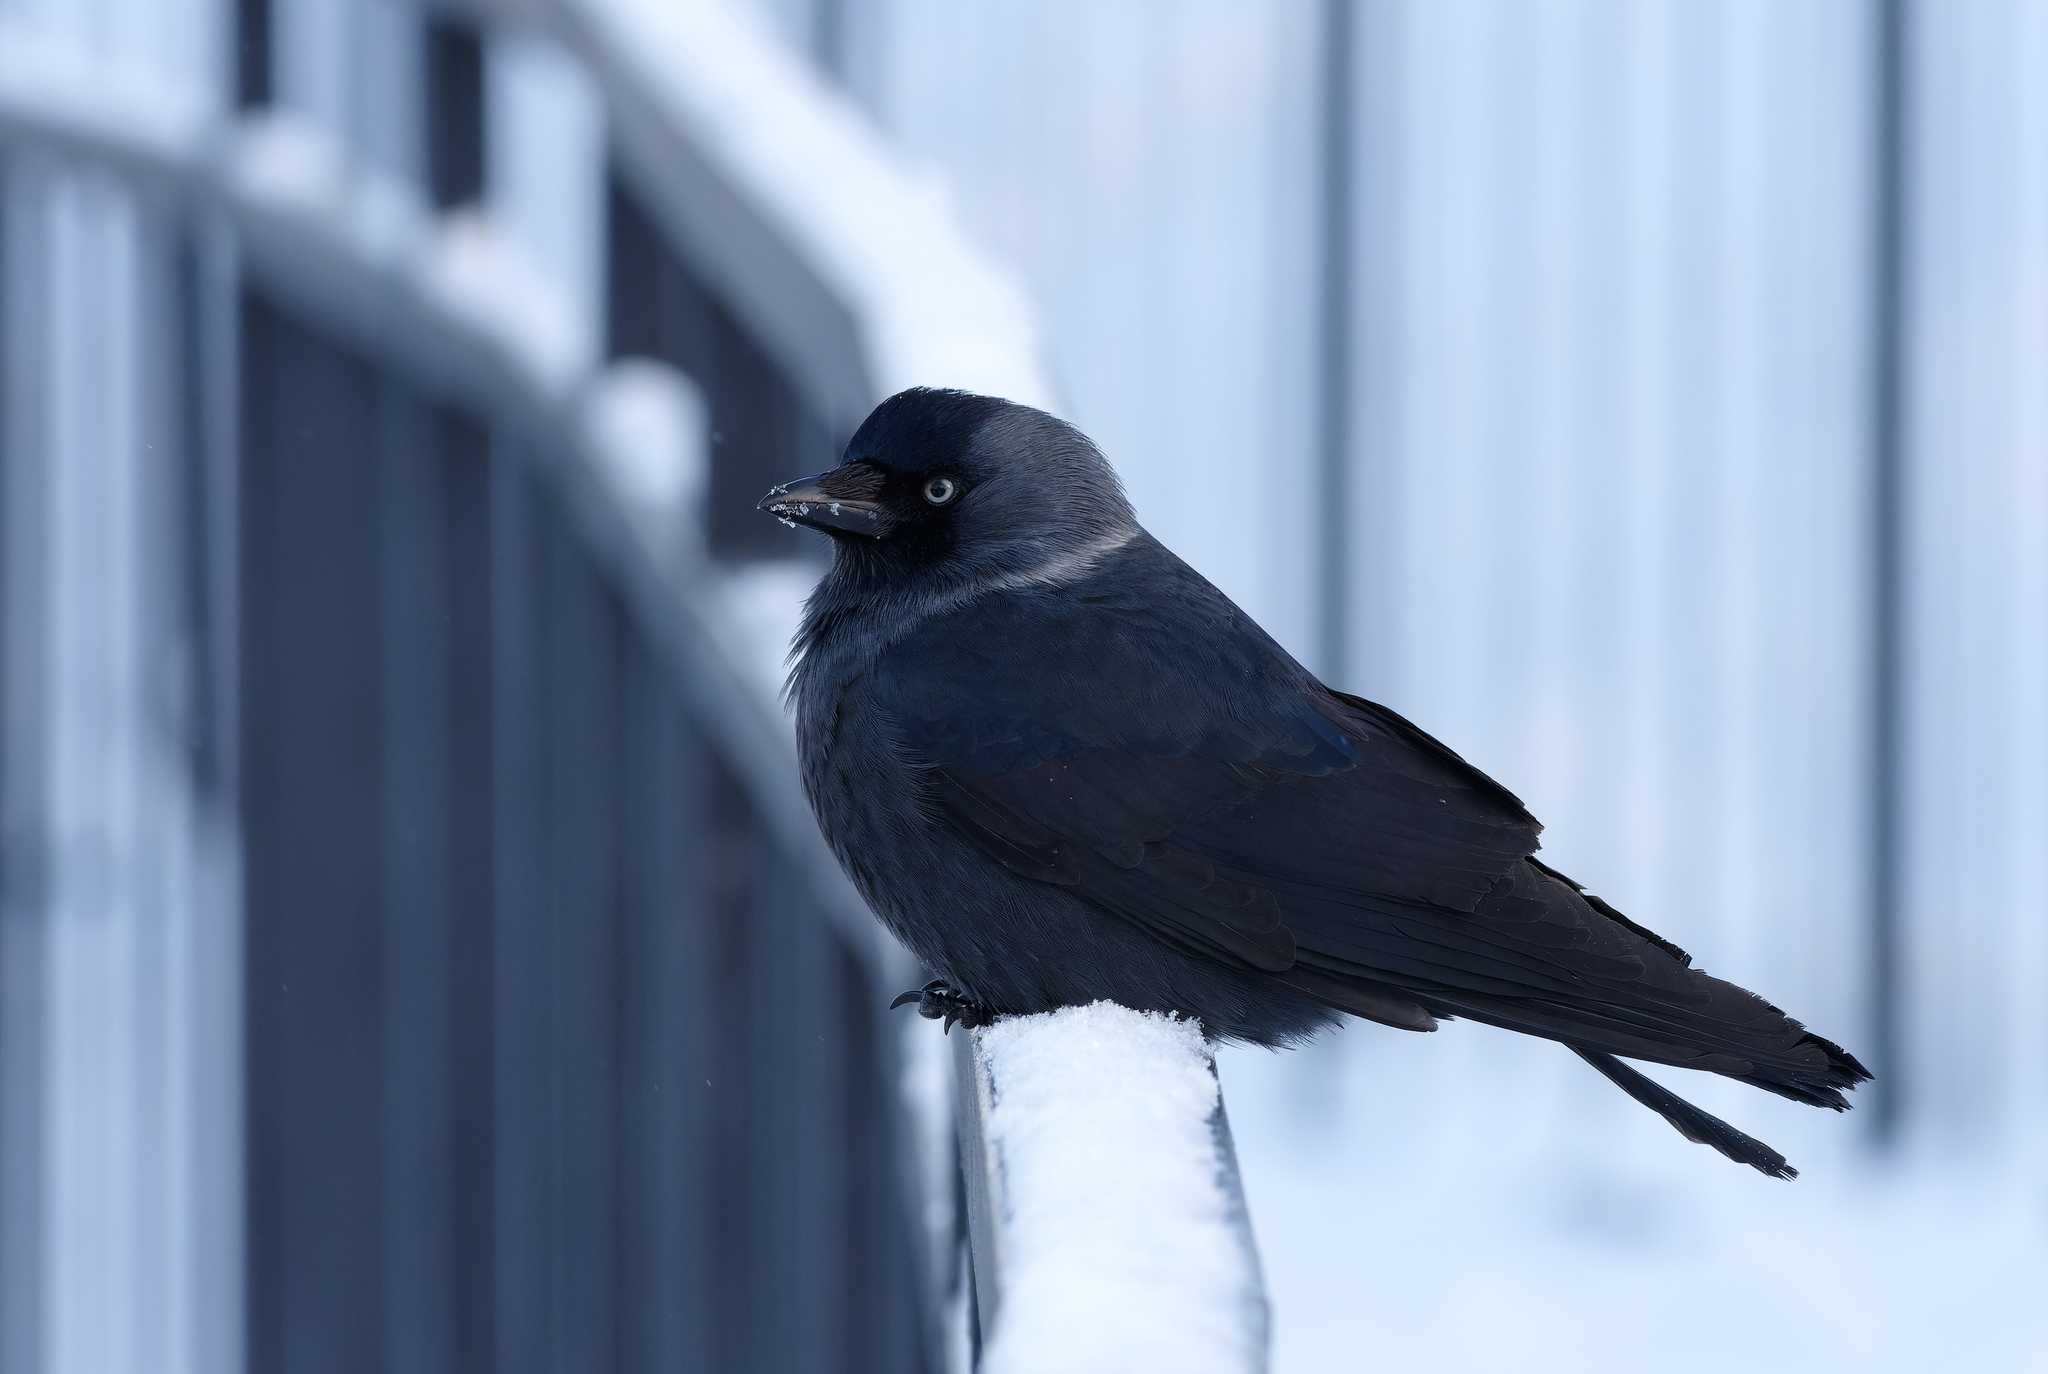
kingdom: Animalia
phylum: Chordata
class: Aves
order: Passeriformes
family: Corvidae
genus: Coloeus
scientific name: Coloeus monedula
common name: Western jackdaw
